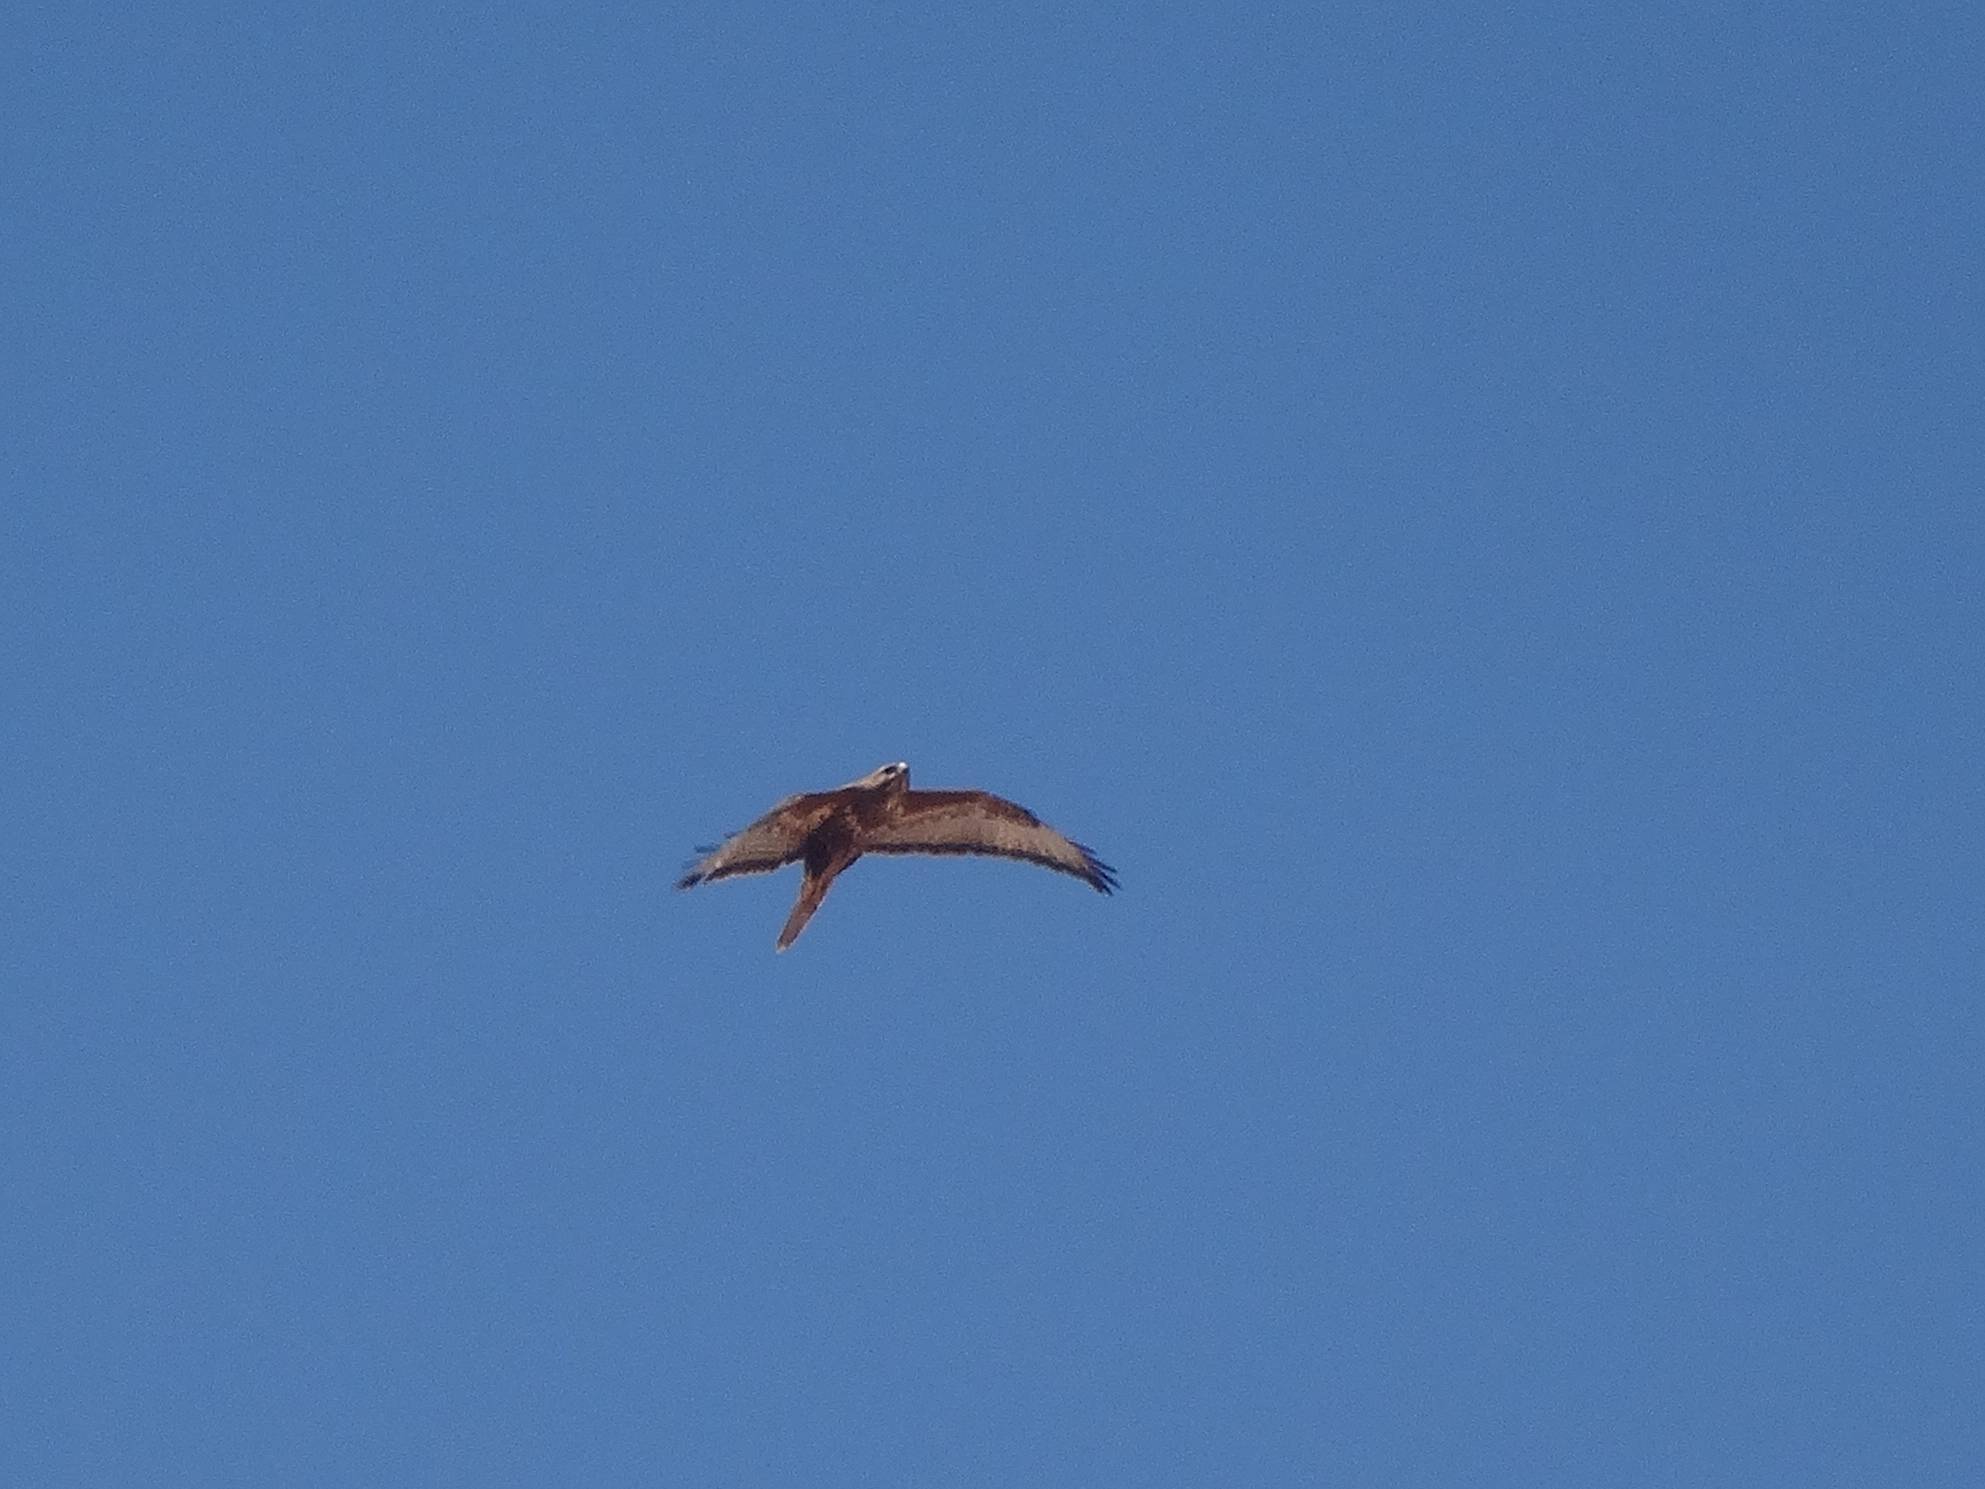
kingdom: Animalia
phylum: Chordata
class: Aves
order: Accipitriformes
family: Accipitridae
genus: Buteo
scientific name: Buteo buteo
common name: Common buzzard
